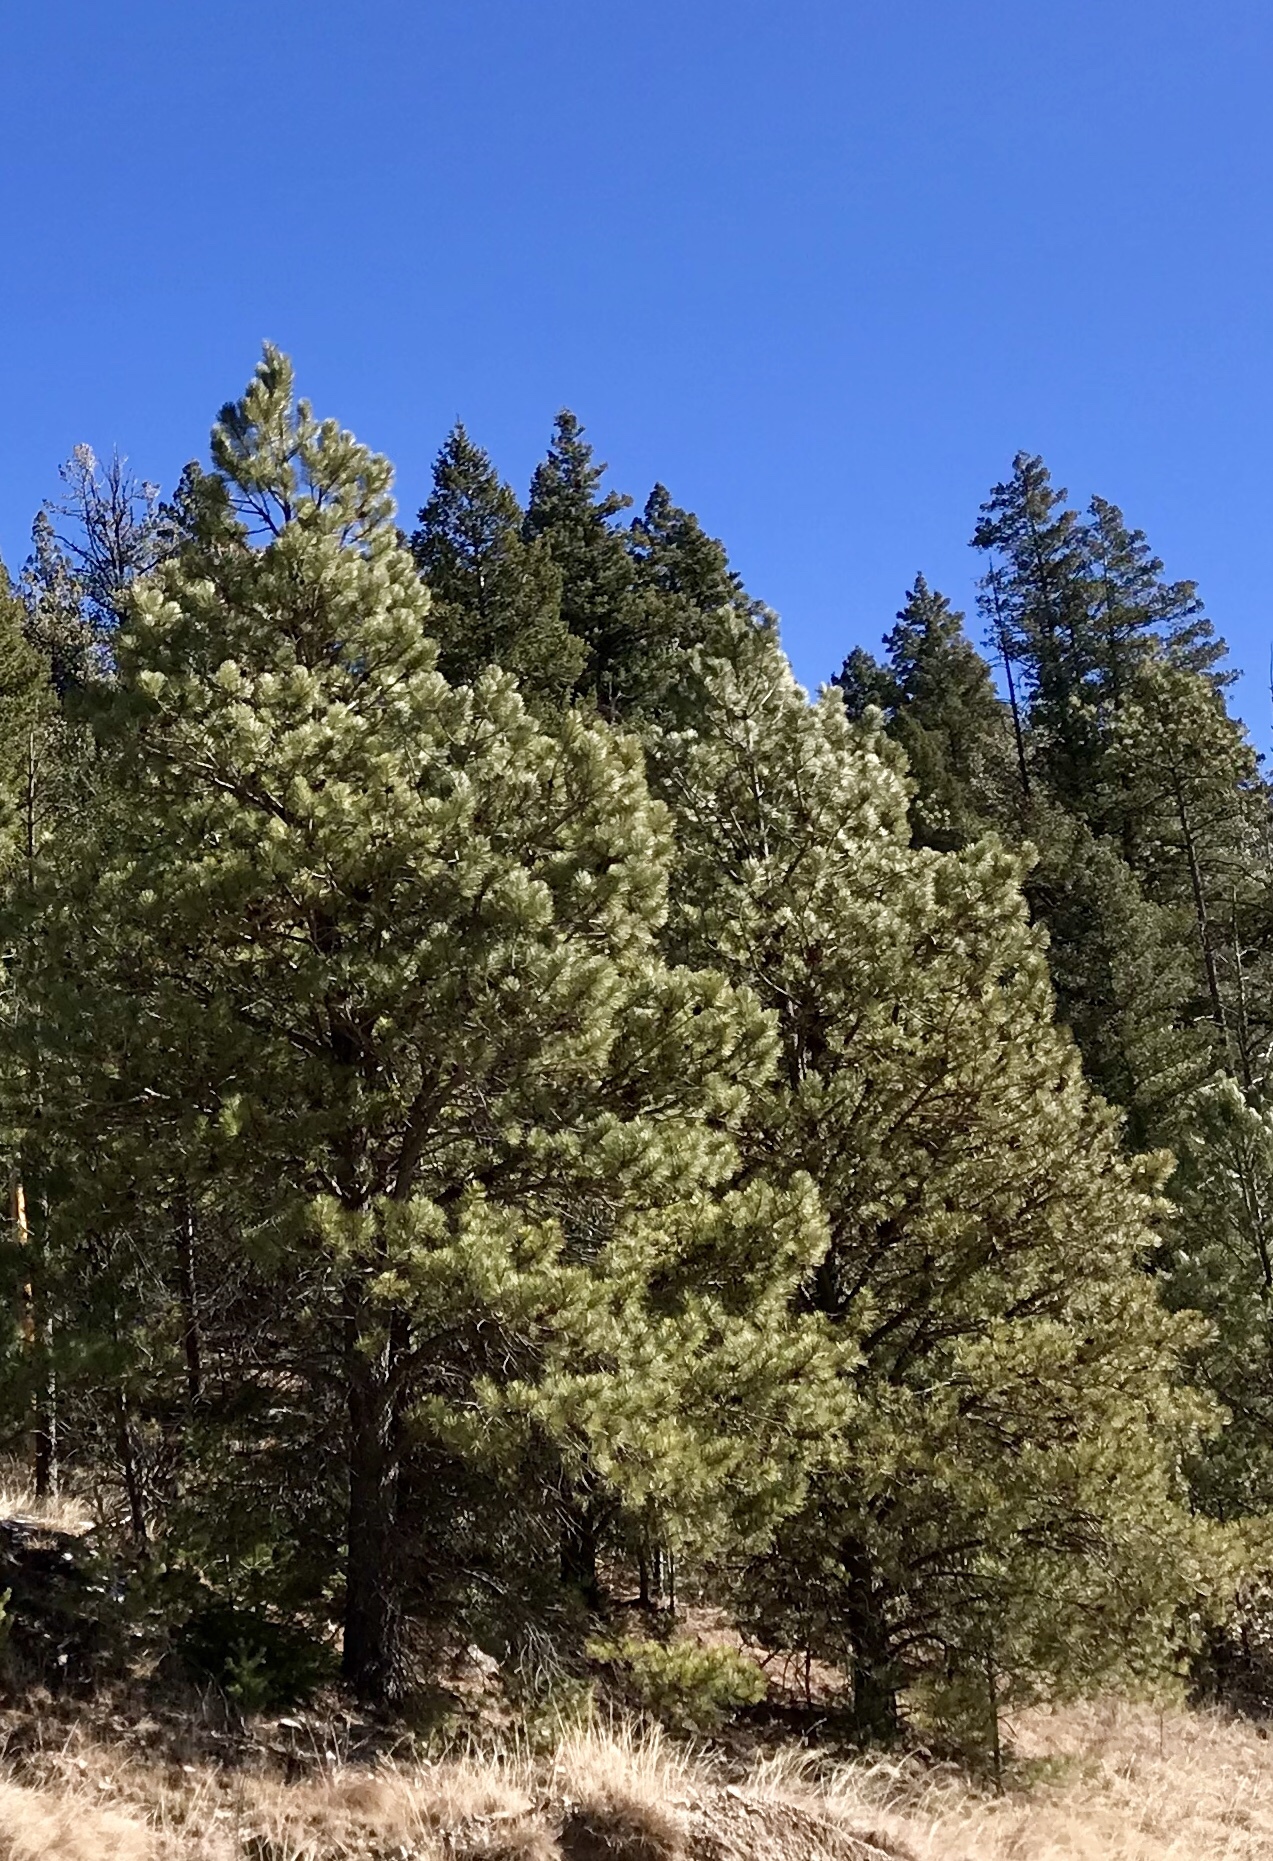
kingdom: Plantae
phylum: Tracheophyta
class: Pinopsida
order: Pinales
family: Pinaceae
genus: Pinus
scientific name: Pinus ponderosa
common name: Western yellow-pine
